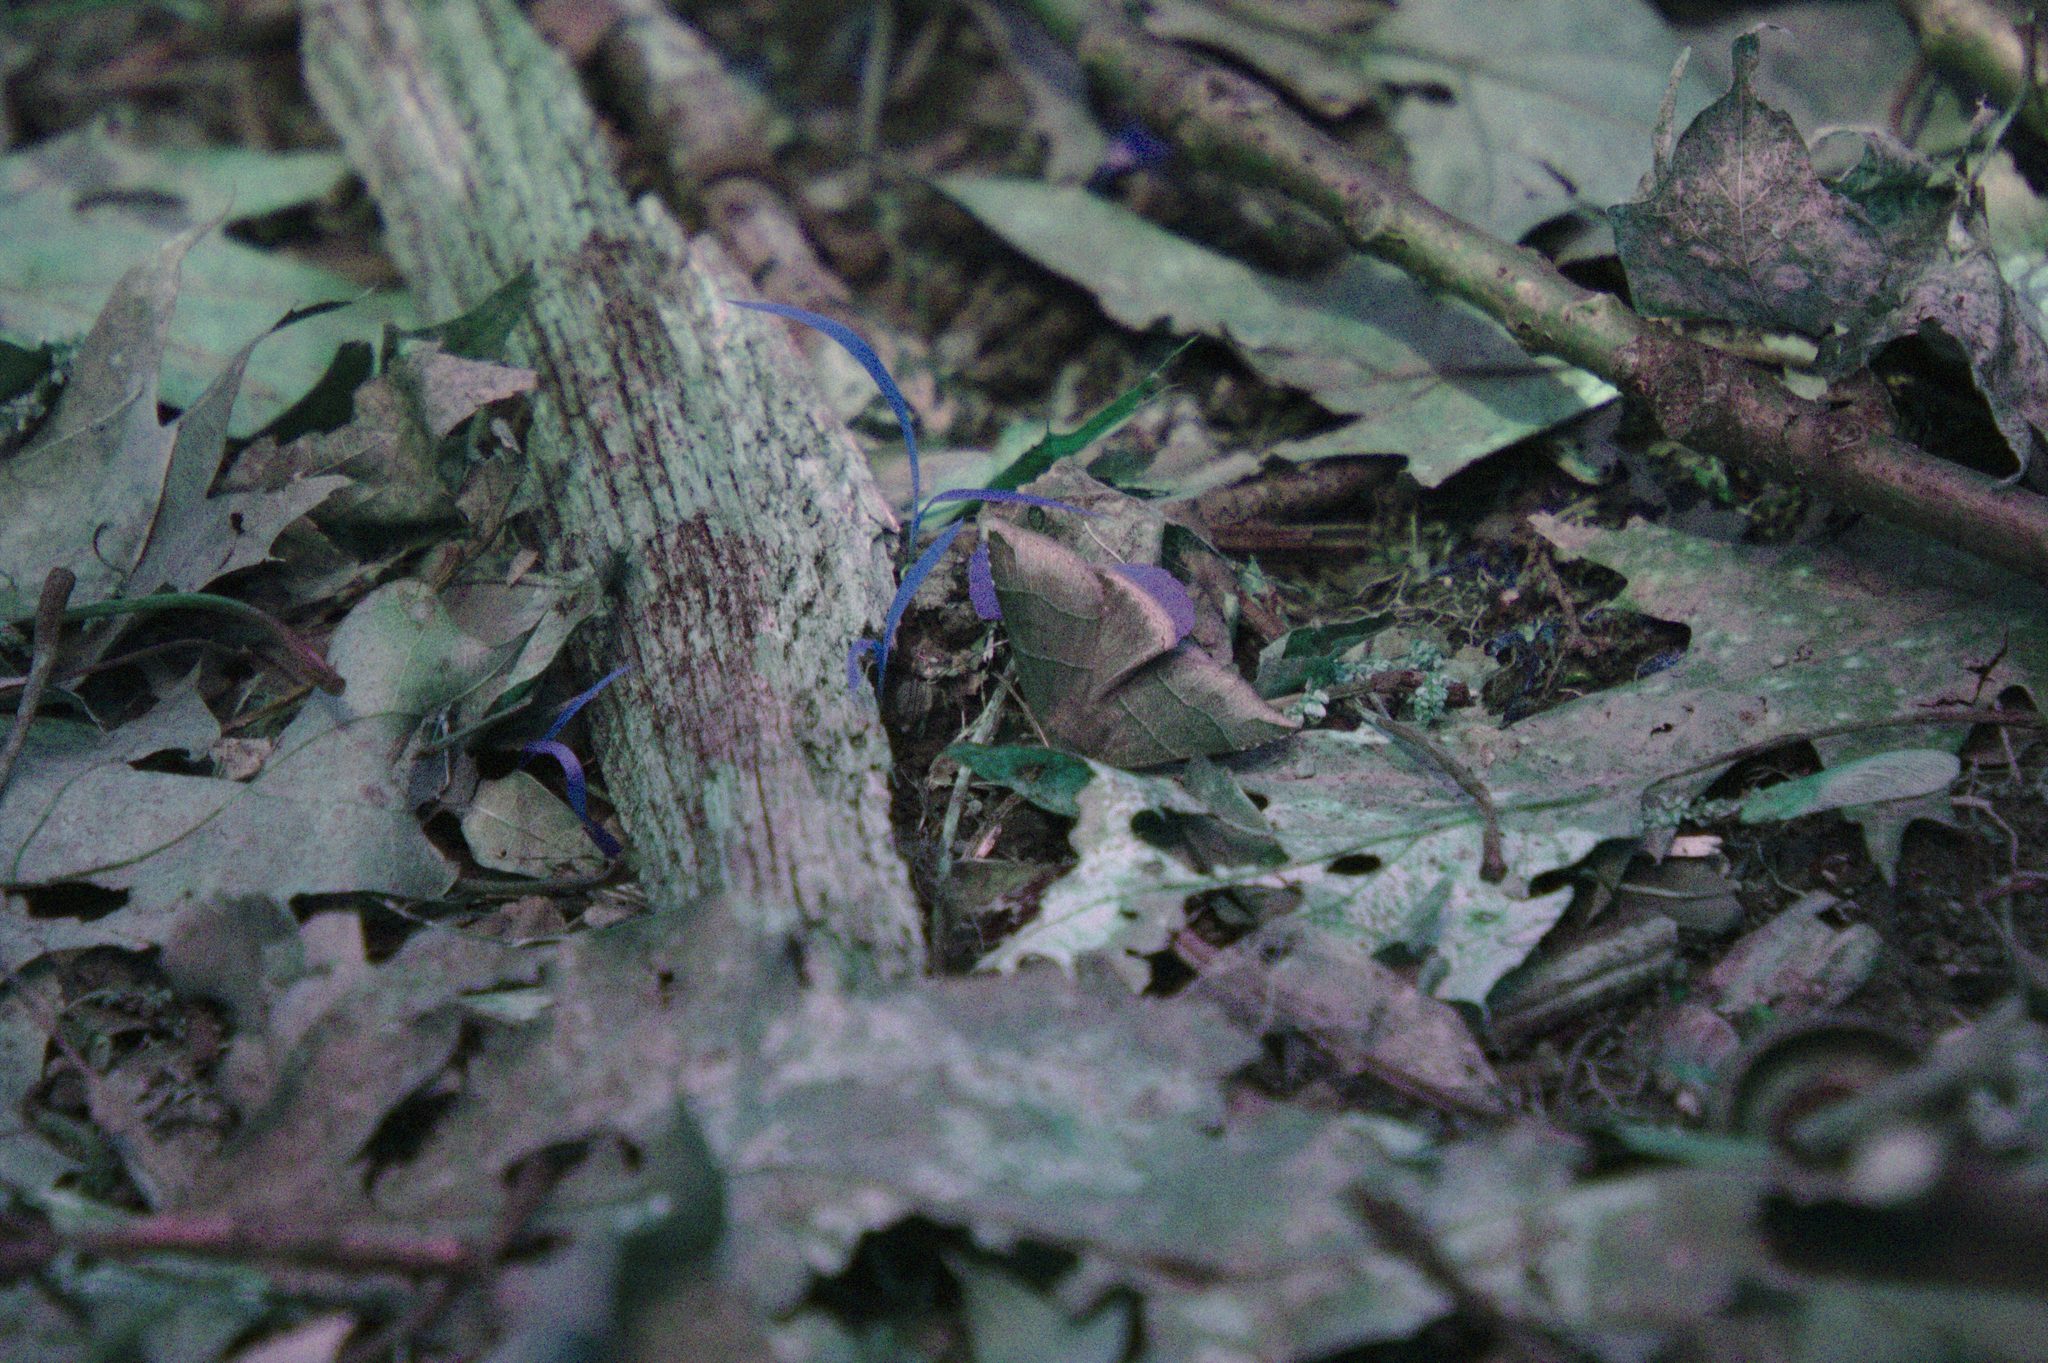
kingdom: Animalia
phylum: Arthropoda
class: Insecta
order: Lepidoptera
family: Erebidae
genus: Parallelia
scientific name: Parallelia bistriaris
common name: Maple looper moth
